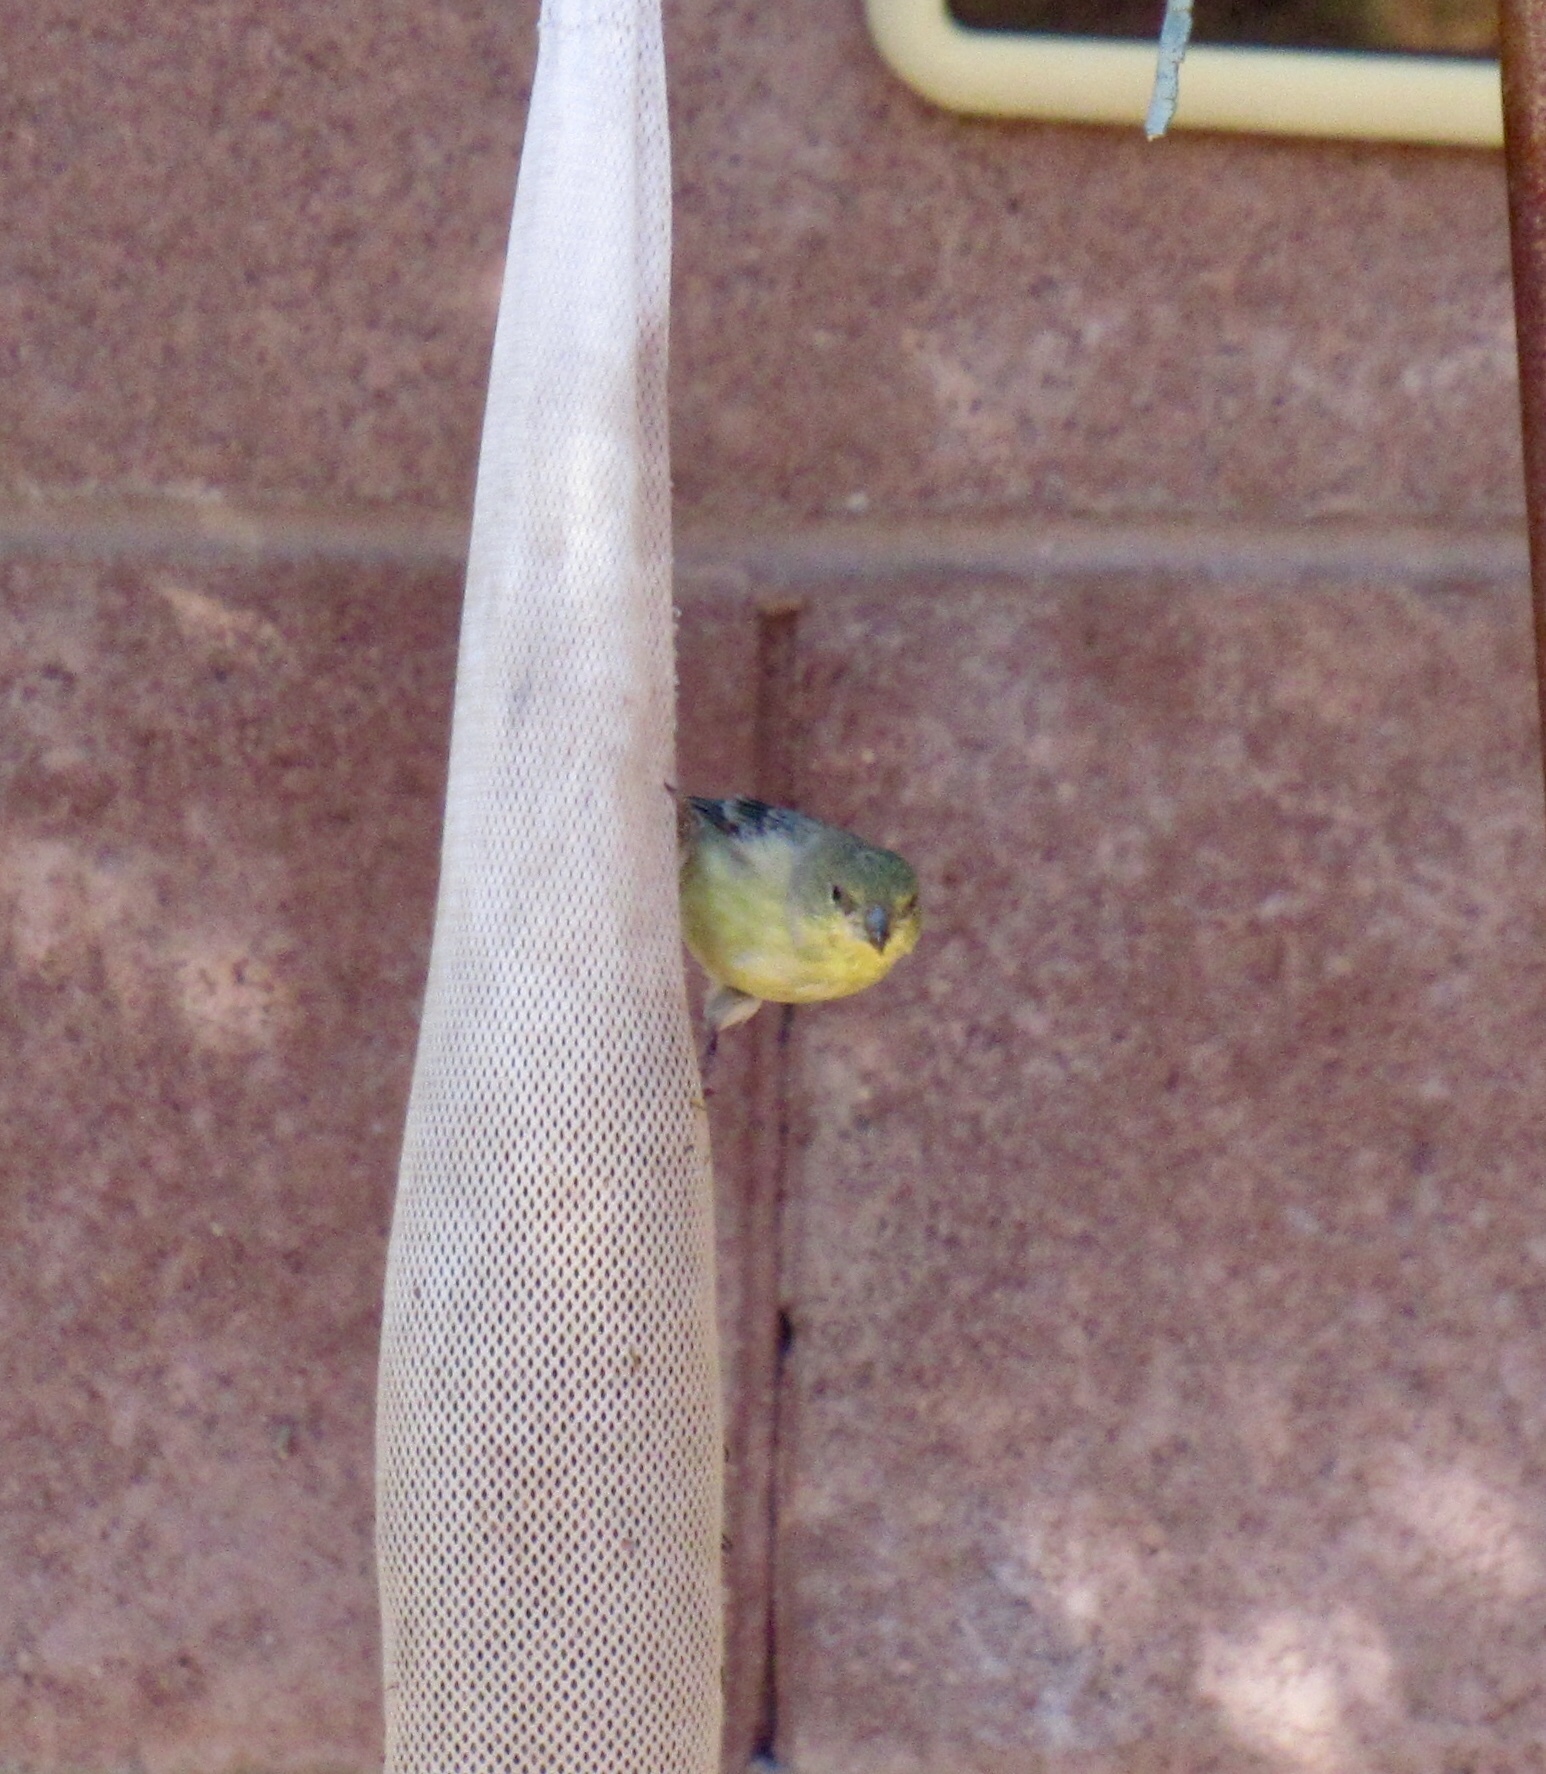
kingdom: Animalia
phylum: Chordata
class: Aves
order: Passeriformes
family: Fringillidae
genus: Spinus
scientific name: Spinus psaltria
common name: Lesser goldfinch
